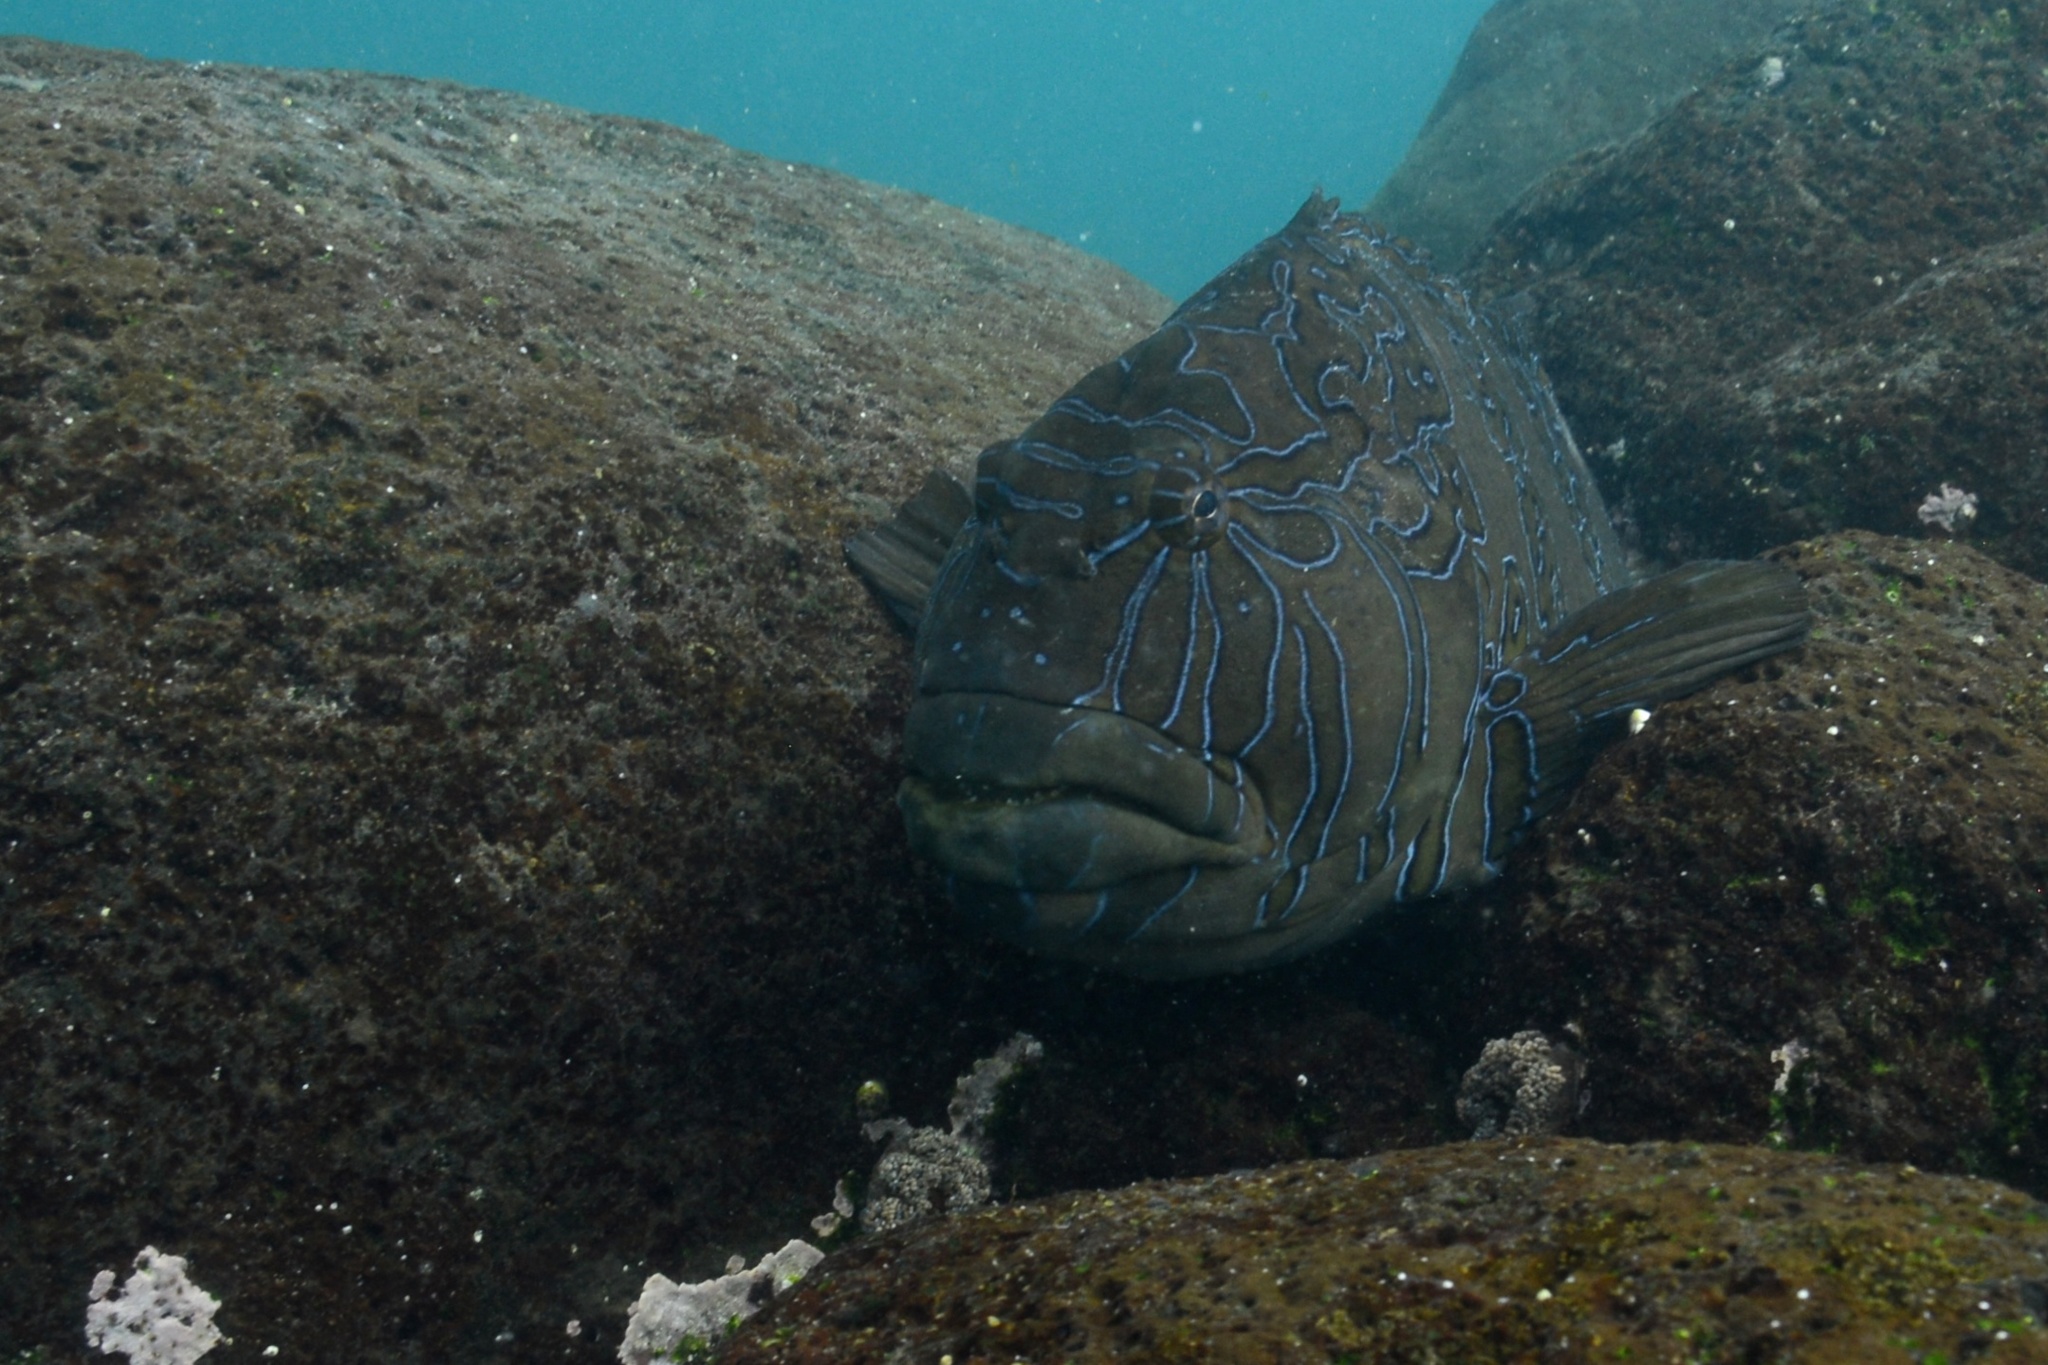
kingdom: Animalia
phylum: Chordata
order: Perciformes
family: Cirrhitidae
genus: Cirrhitus
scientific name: Cirrhitus rivulatus
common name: Giant hawkfish
